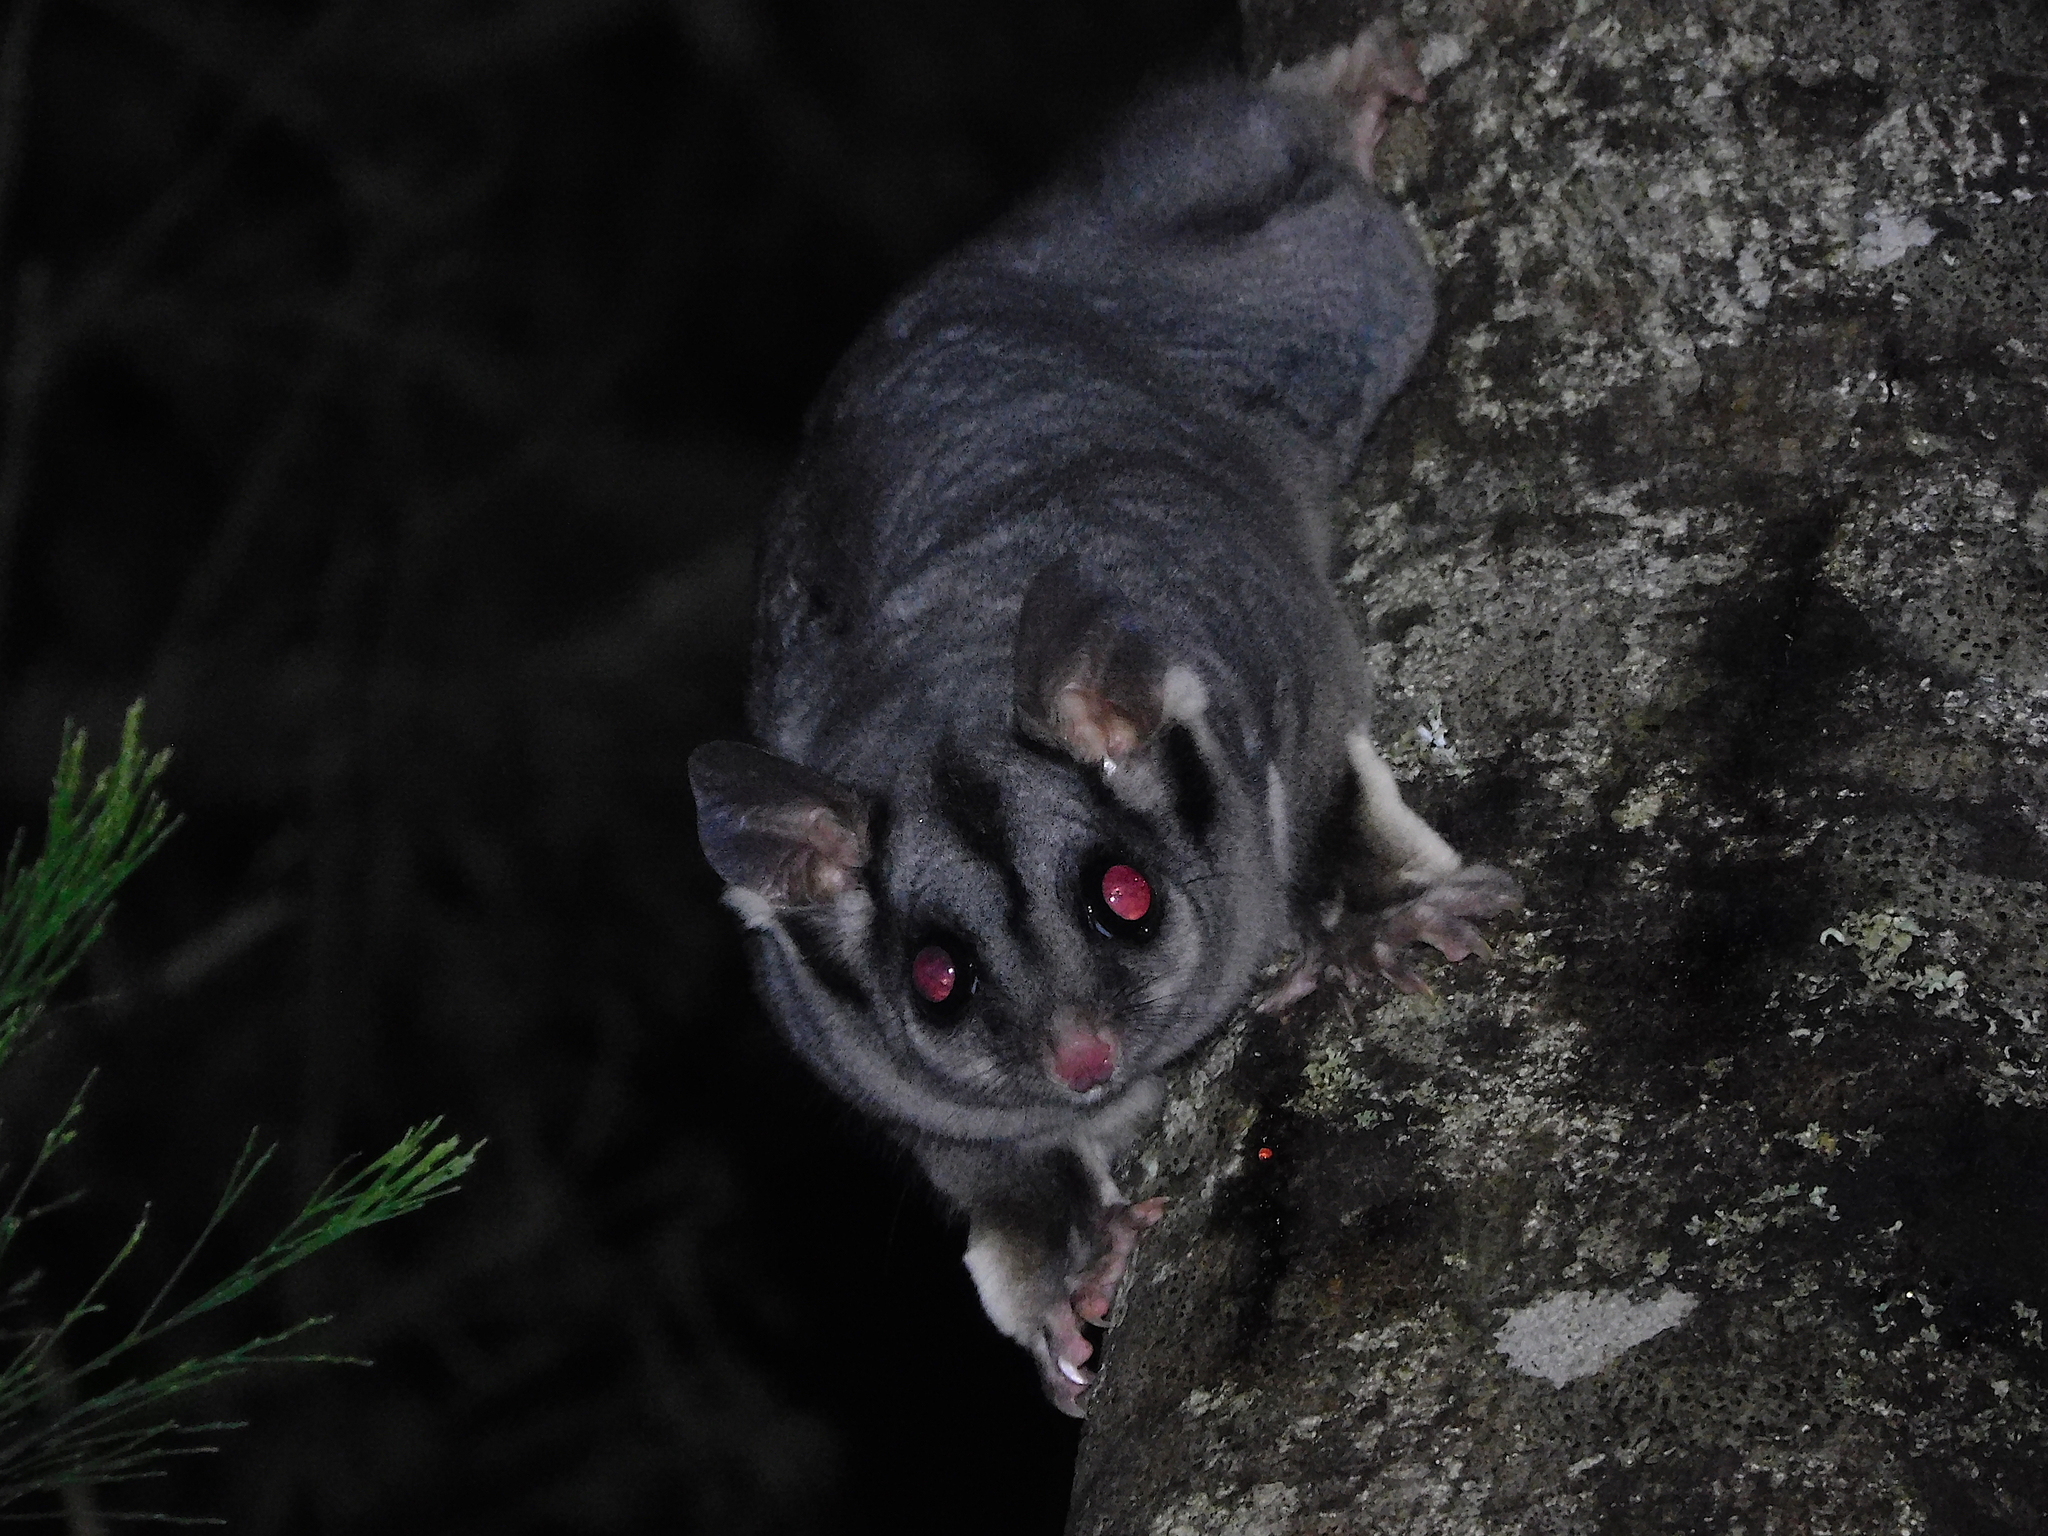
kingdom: Animalia
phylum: Chordata
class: Mammalia
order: Diprotodontia
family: Petauridae
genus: Petaurus
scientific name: Petaurus breviceps
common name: Sugar glider
